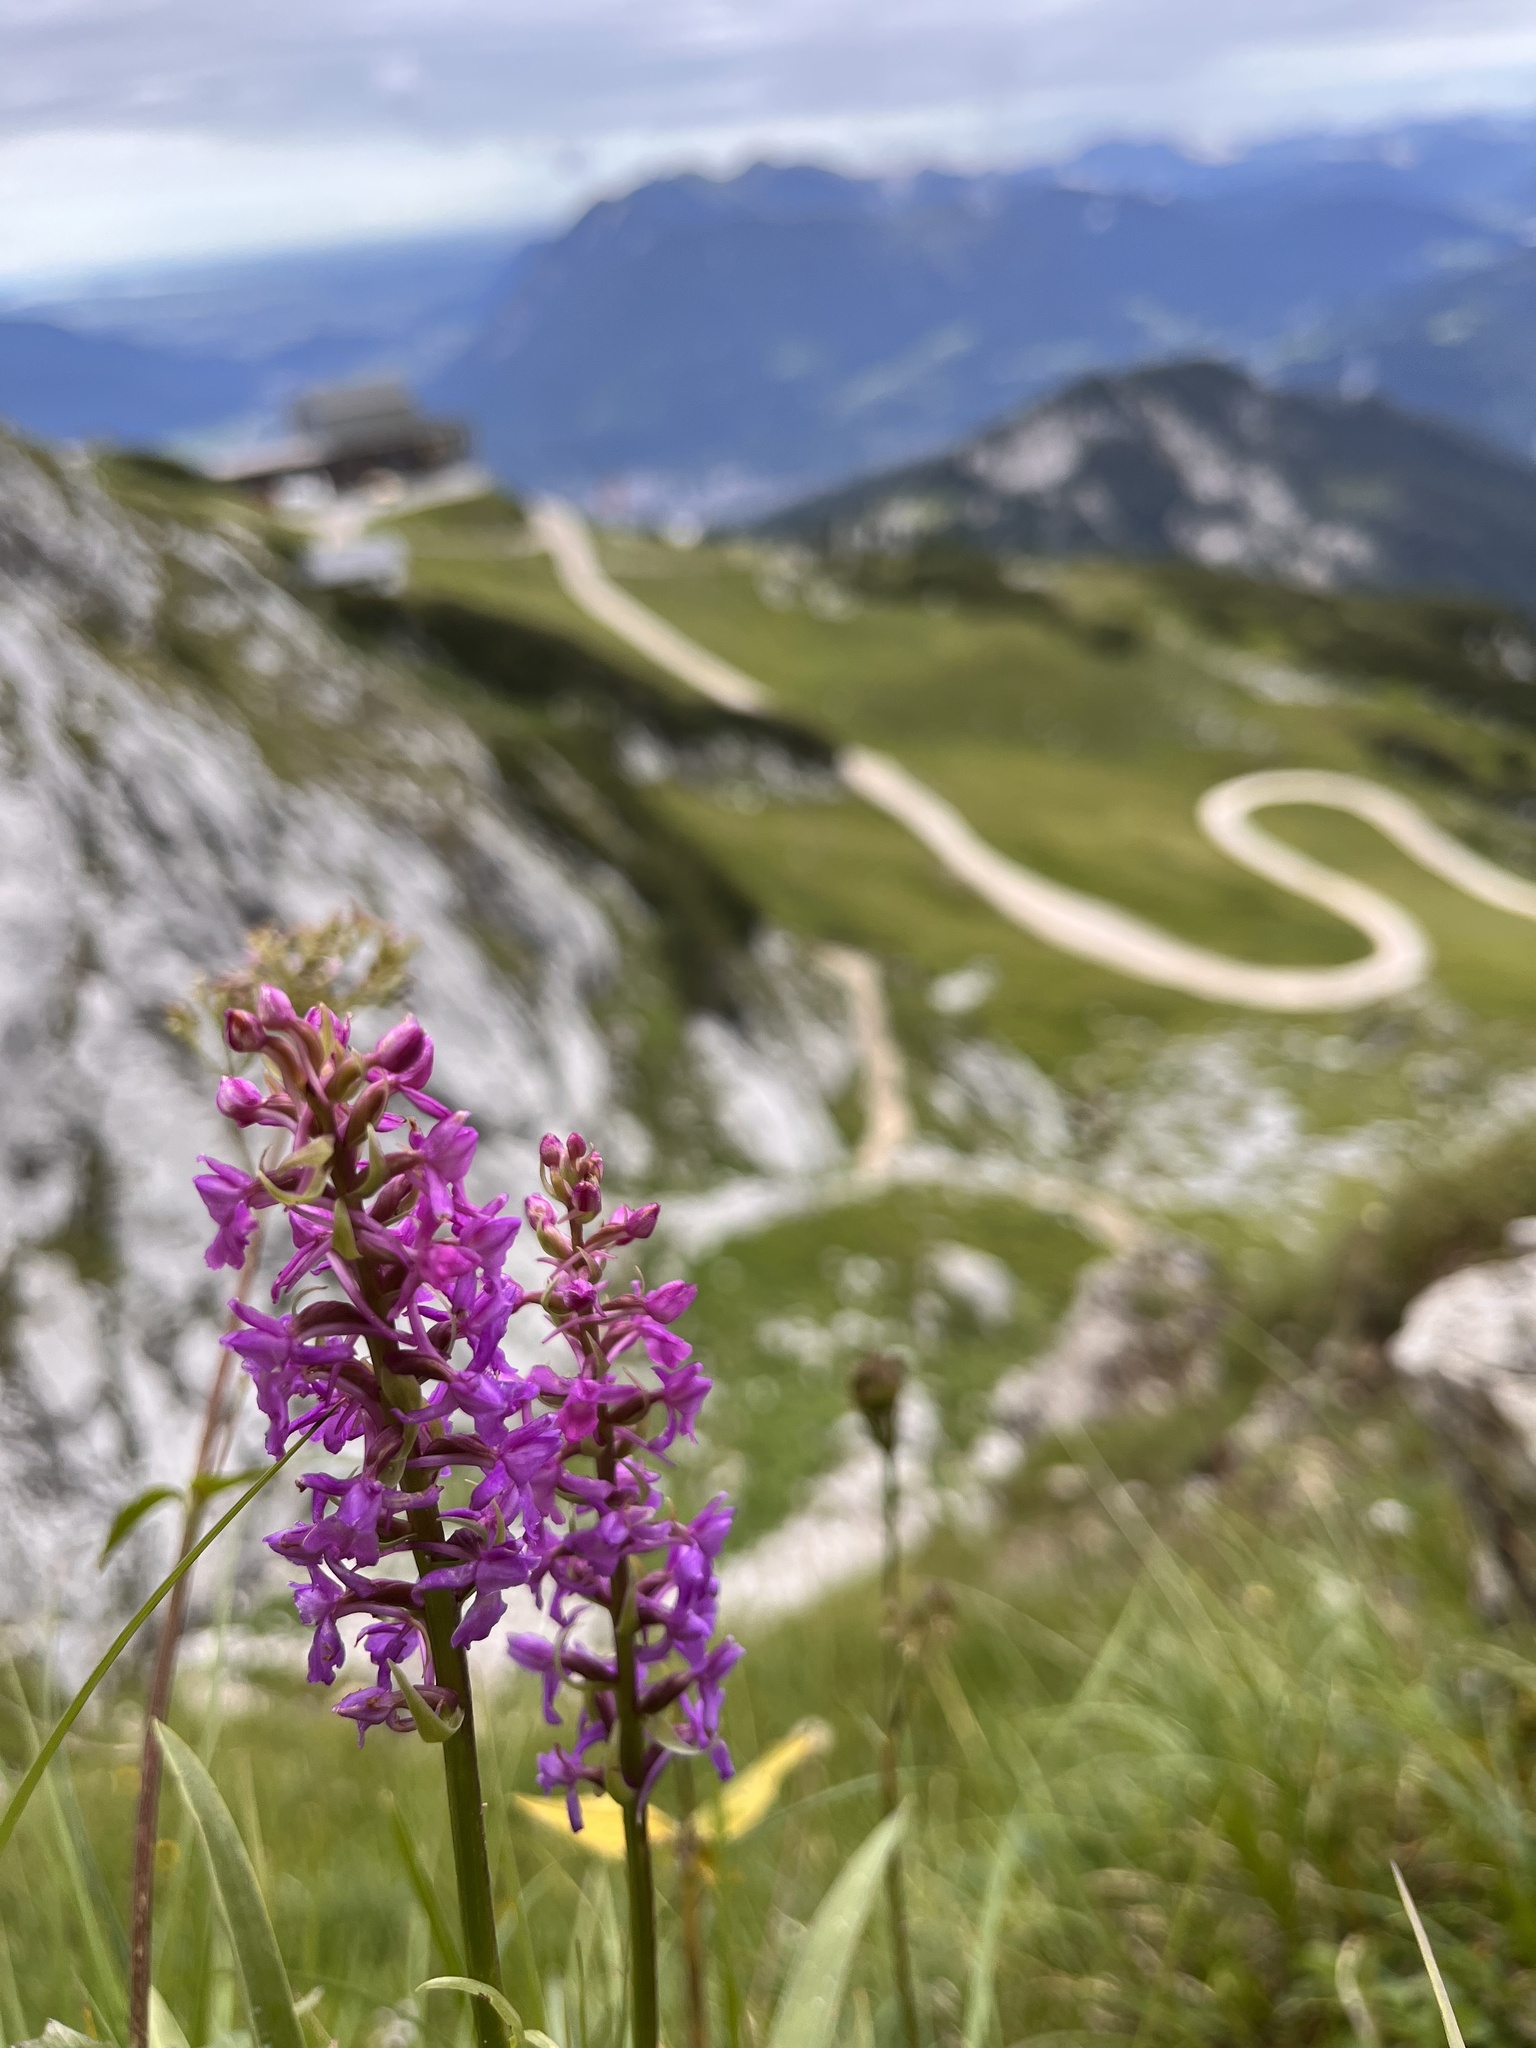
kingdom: Plantae
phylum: Tracheophyta
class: Liliopsida
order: Asparagales
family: Orchidaceae
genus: Gymnadenia
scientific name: Gymnadenia conopsea
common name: Fragrant orchid
